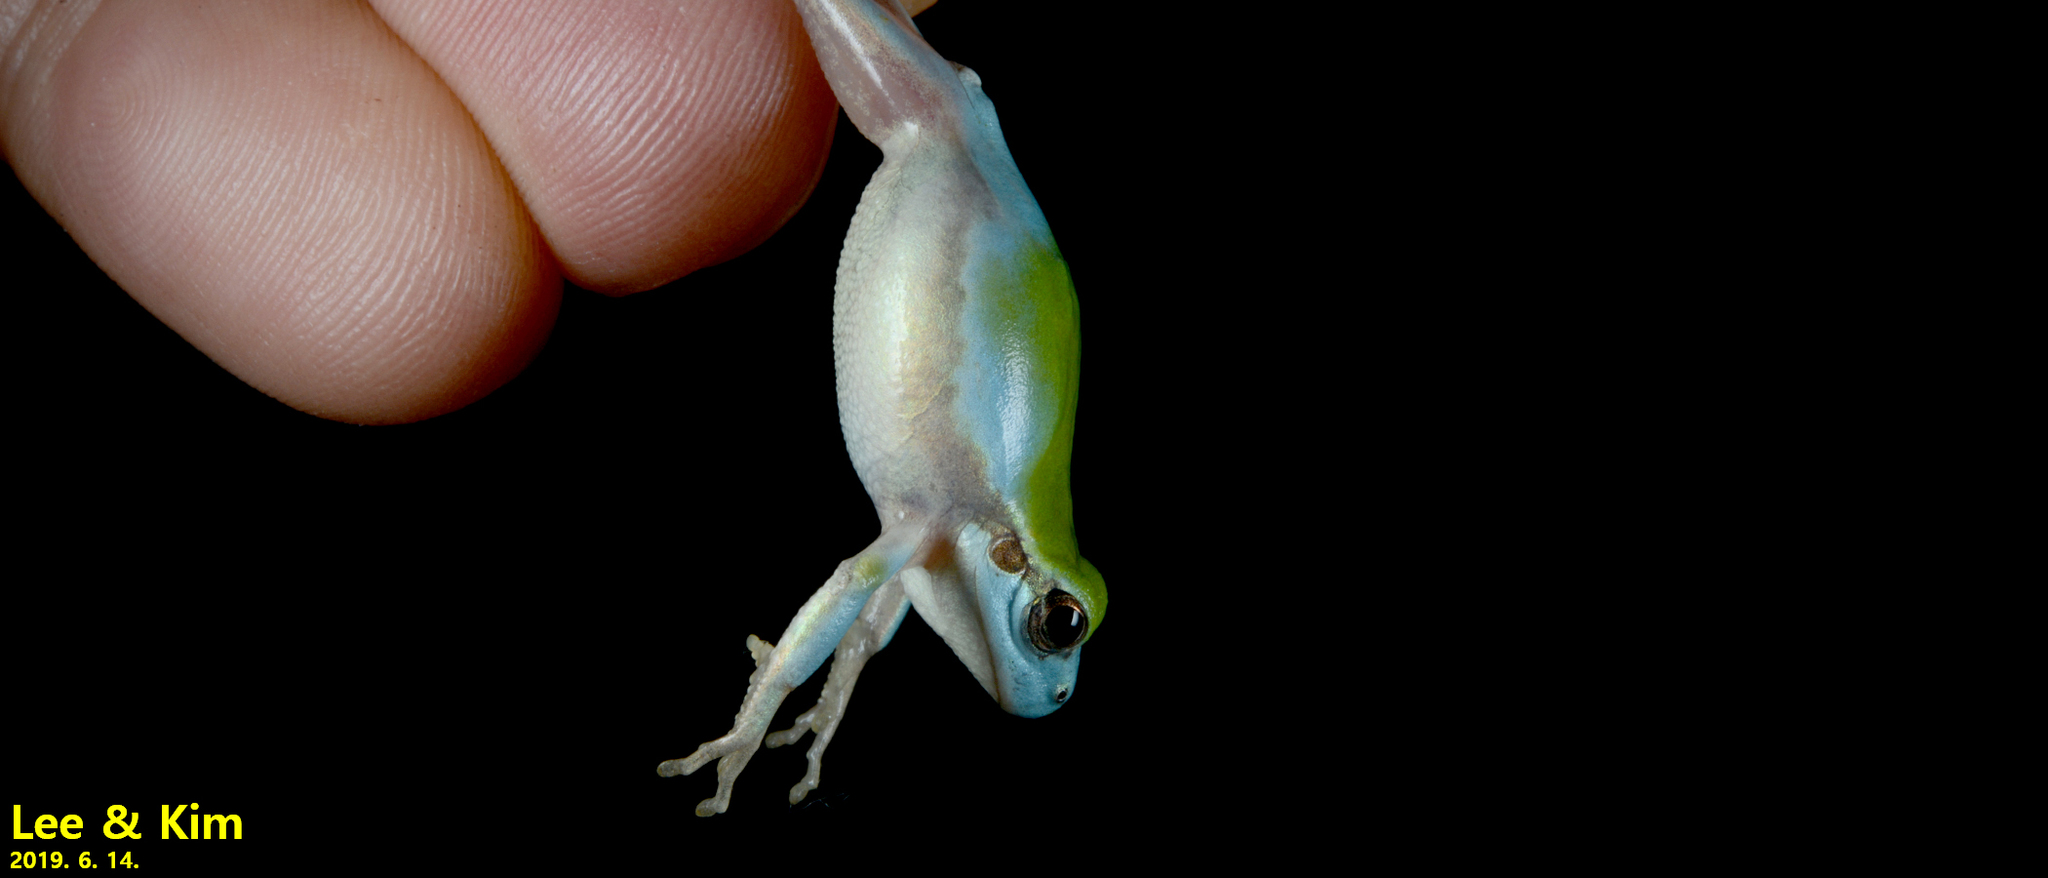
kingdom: Animalia
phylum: Chordata
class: Amphibia
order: Anura
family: Hylidae
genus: Dryophytes
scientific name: Dryophytes japonicus
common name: Japanese treefrog
